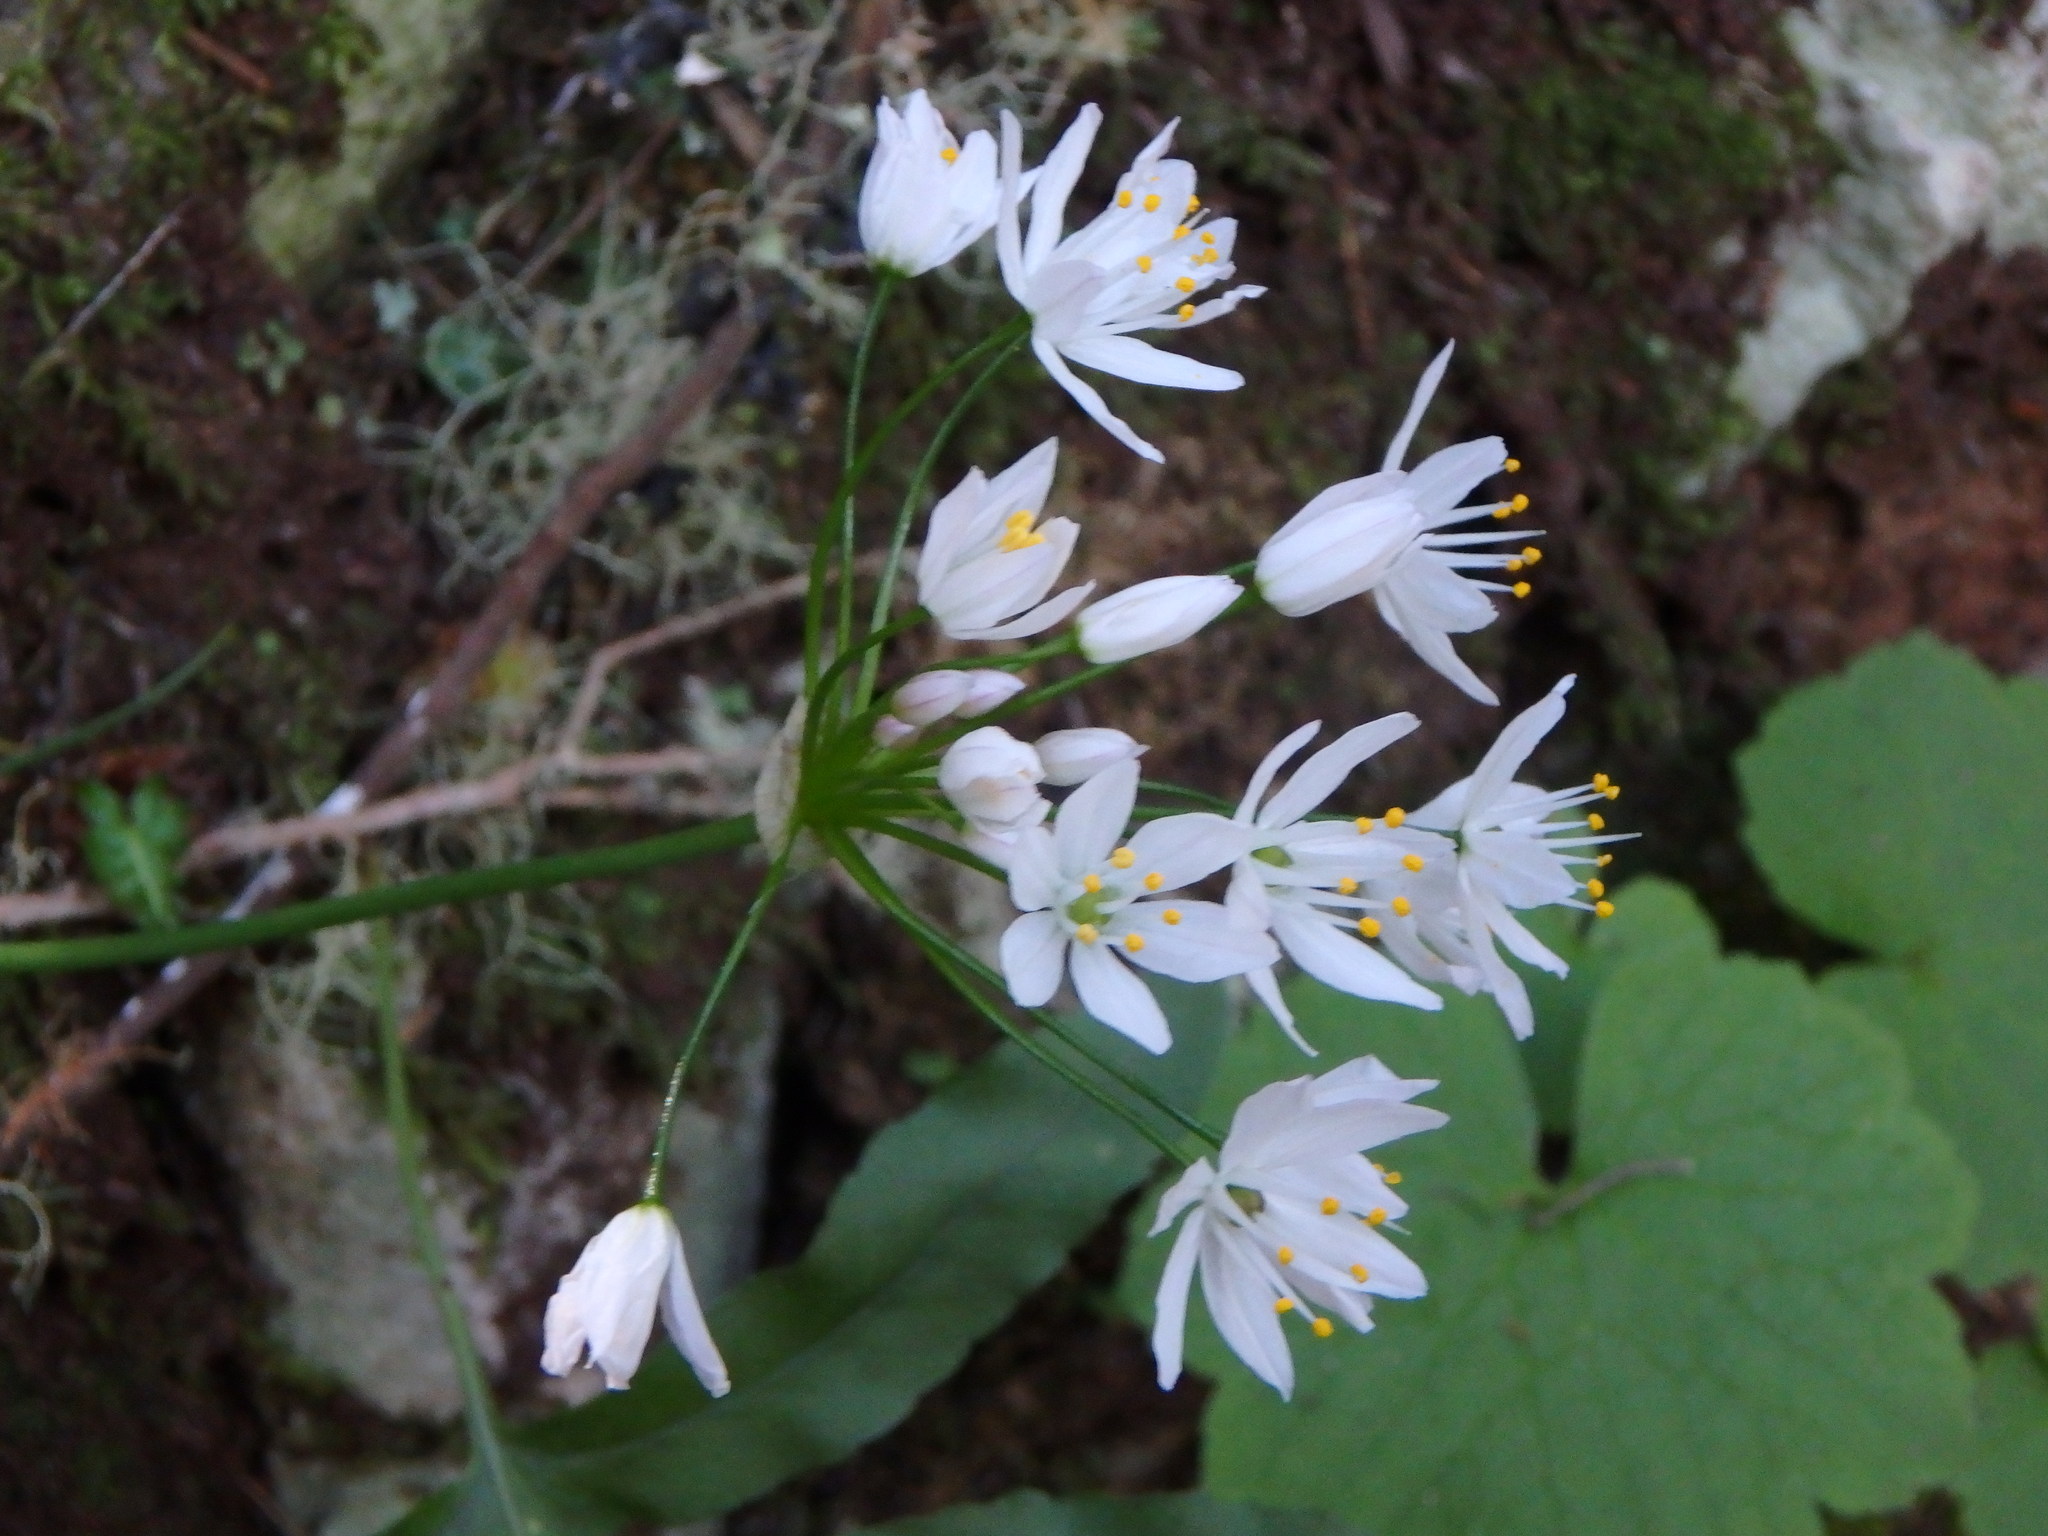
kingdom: Plantae
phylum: Tracheophyta
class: Liliopsida
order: Asparagales
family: Amaryllidaceae
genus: Allium
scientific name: Allium canariense
